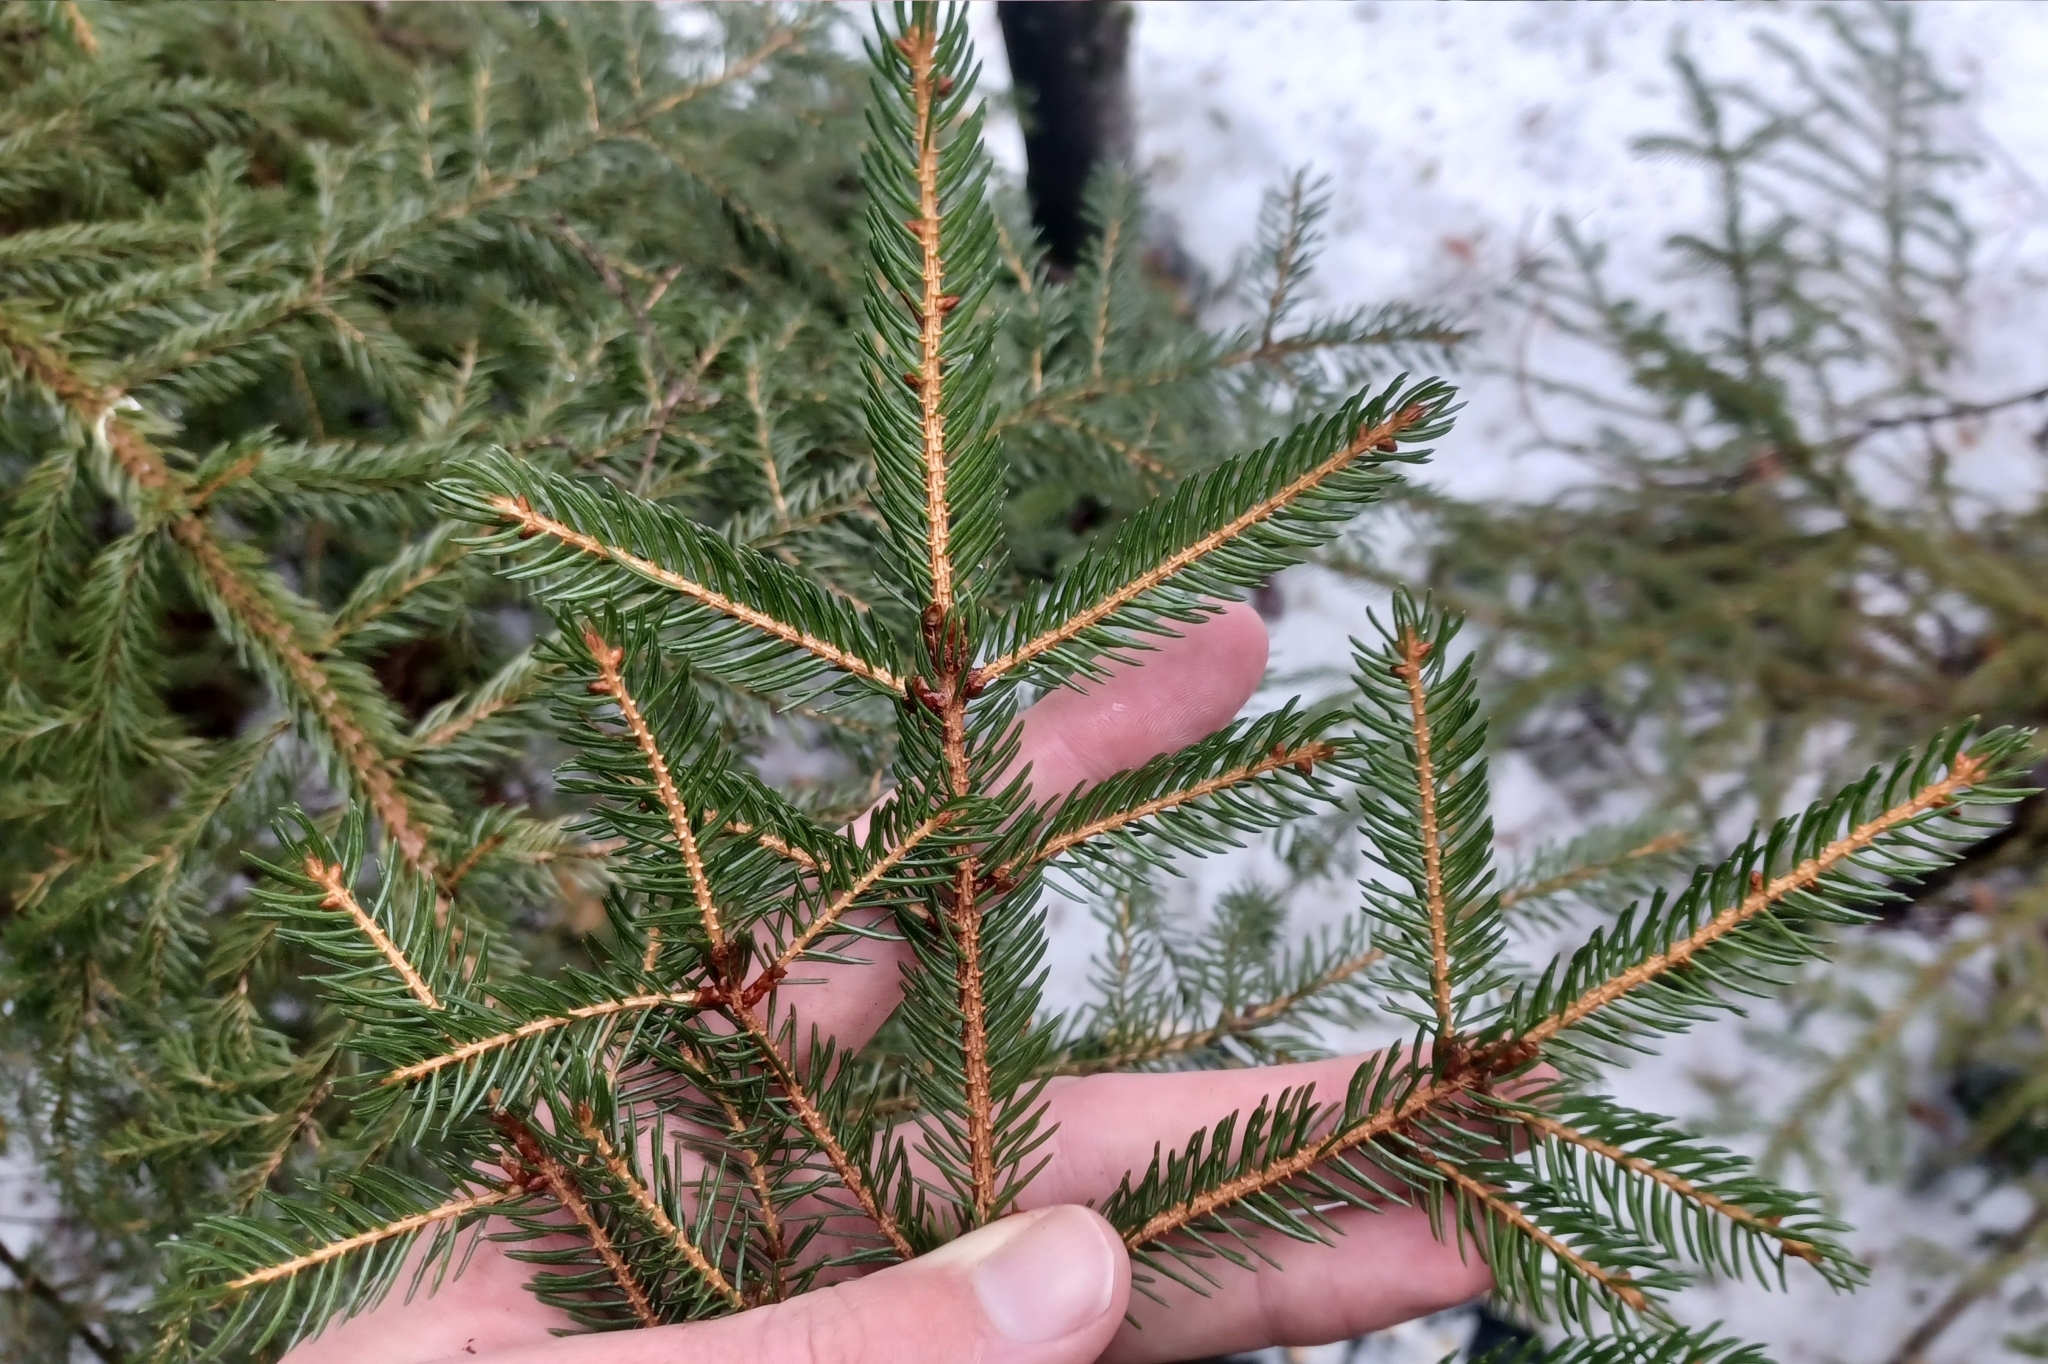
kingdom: Plantae
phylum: Tracheophyta
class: Pinopsida
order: Pinales
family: Pinaceae
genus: Picea
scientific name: Picea rubens
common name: Red spruce
